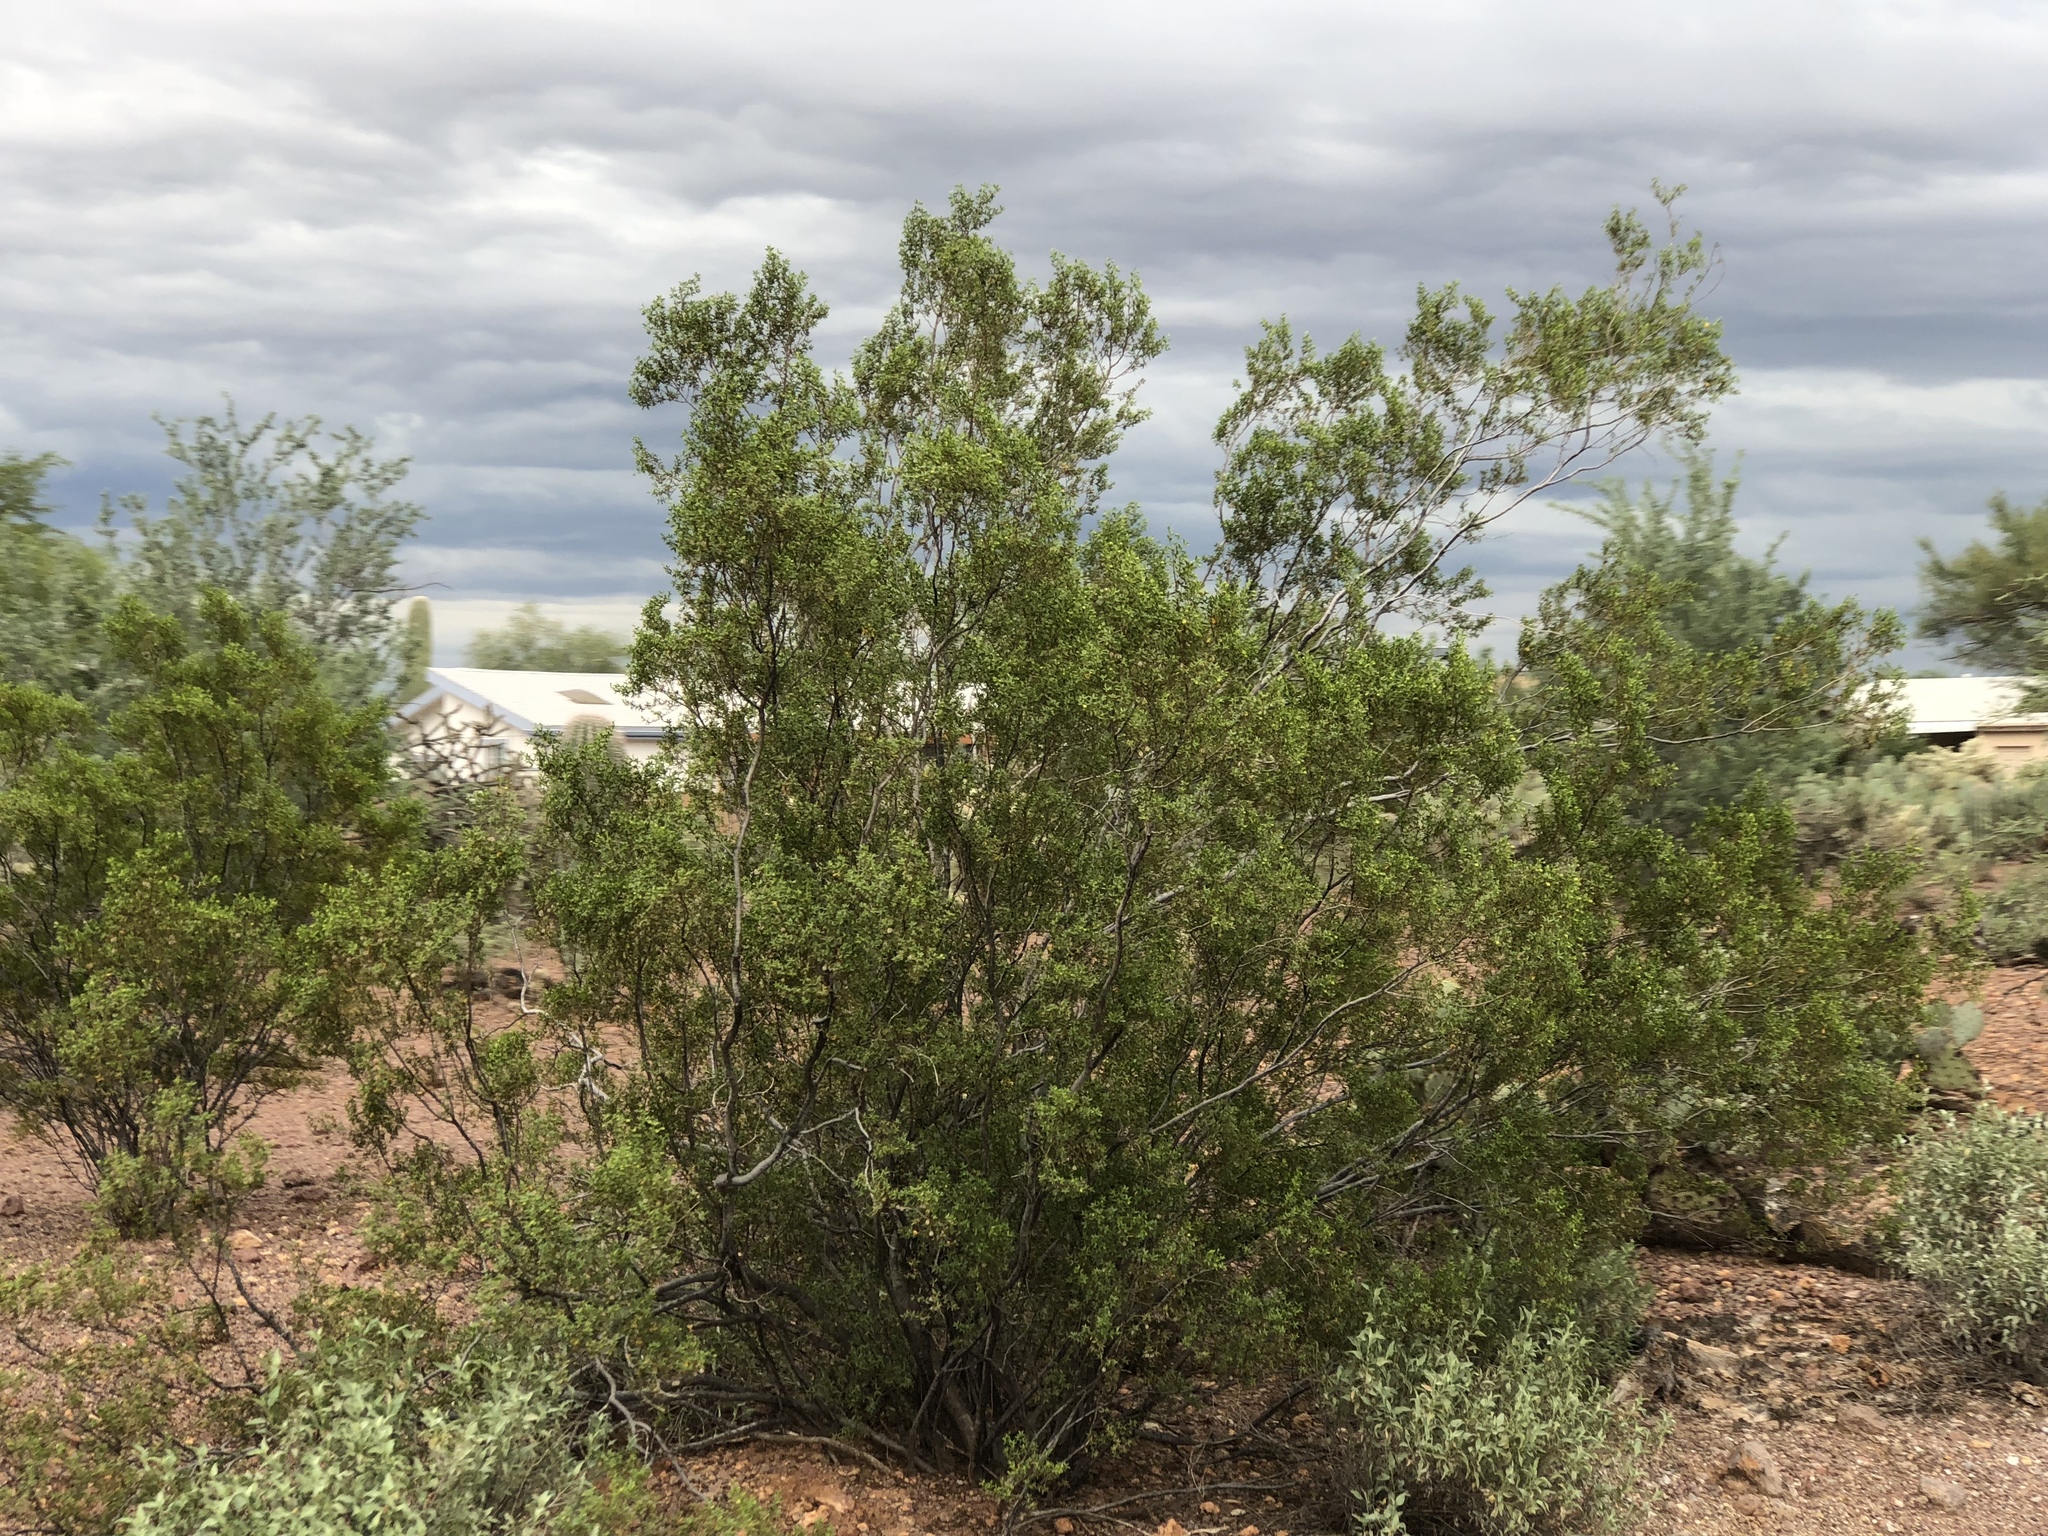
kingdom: Plantae
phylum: Tracheophyta
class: Magnoliopsida
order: Zygophyllales
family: Zygophyllaceae
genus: Larrea
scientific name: Larrea tridentata
